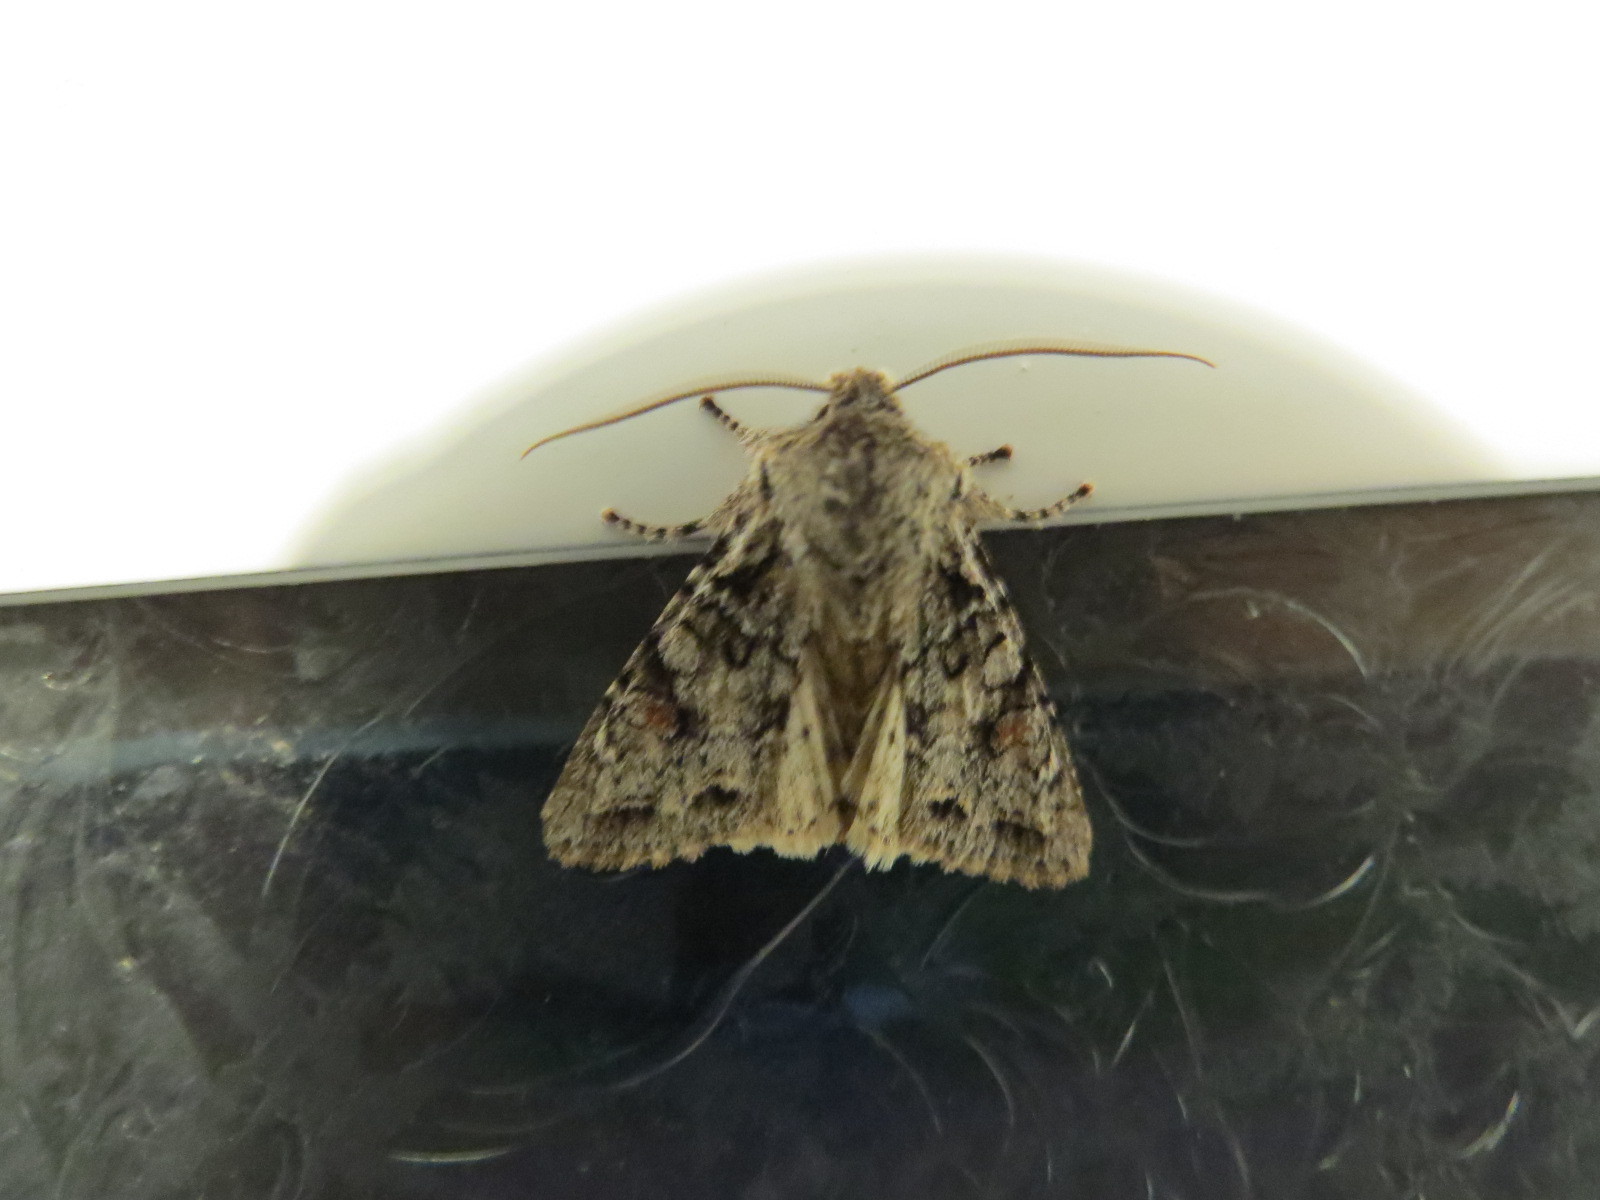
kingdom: Animalia
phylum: Arthropoda
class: Insecta
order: Lepidoptera
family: Noctuidae
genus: Egira
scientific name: Egira hiemalis
